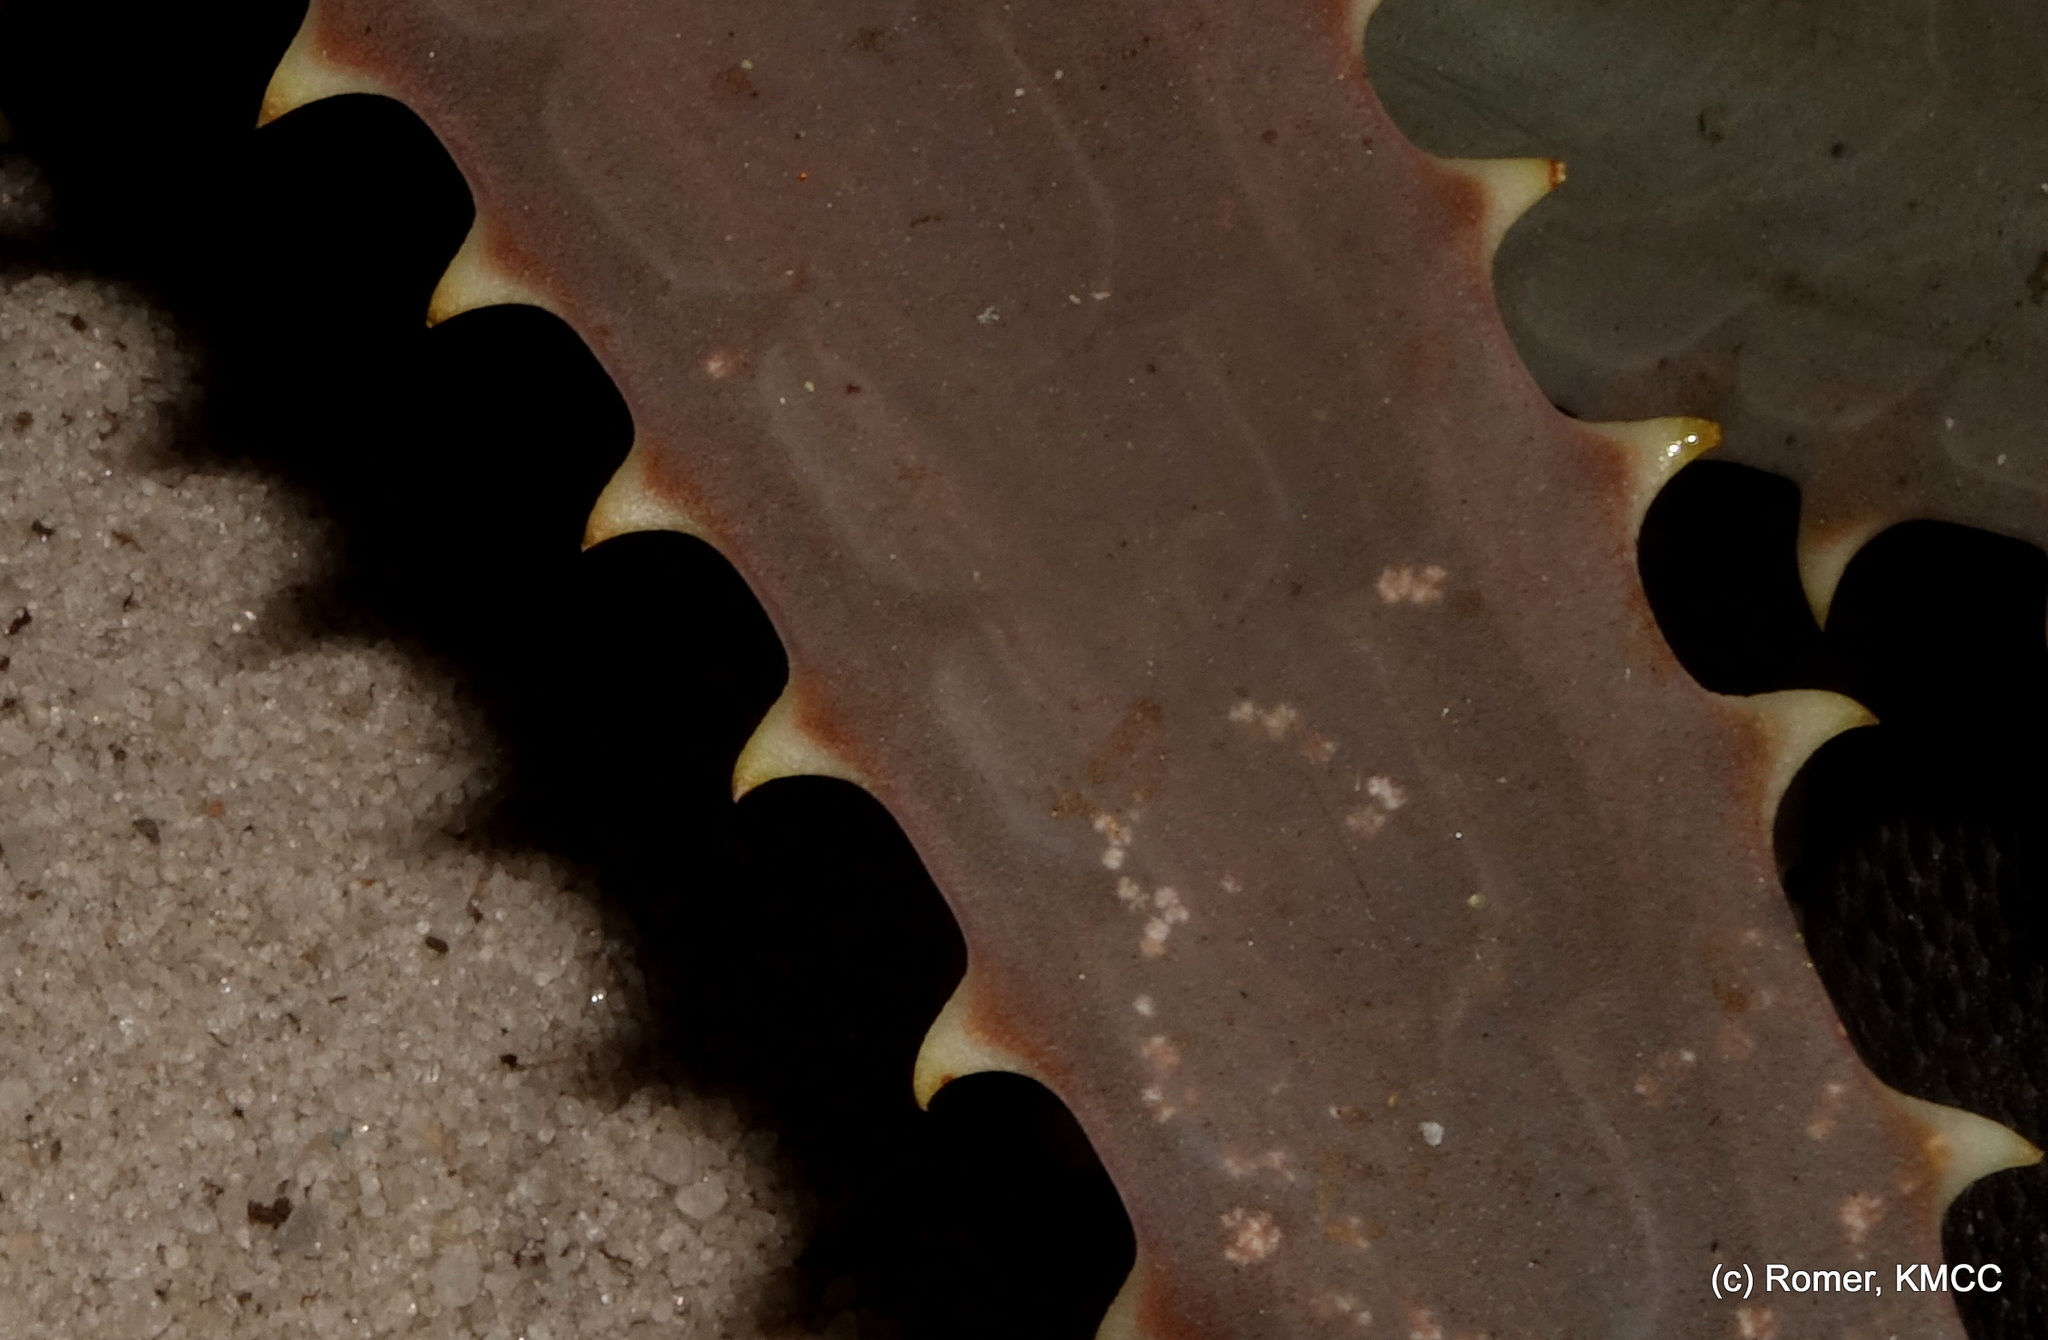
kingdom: Plantae
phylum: Tracheophyta
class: Liliopsida
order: Asparagales
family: Asphodelaceae
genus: Aloe
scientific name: Aloe divaricata
